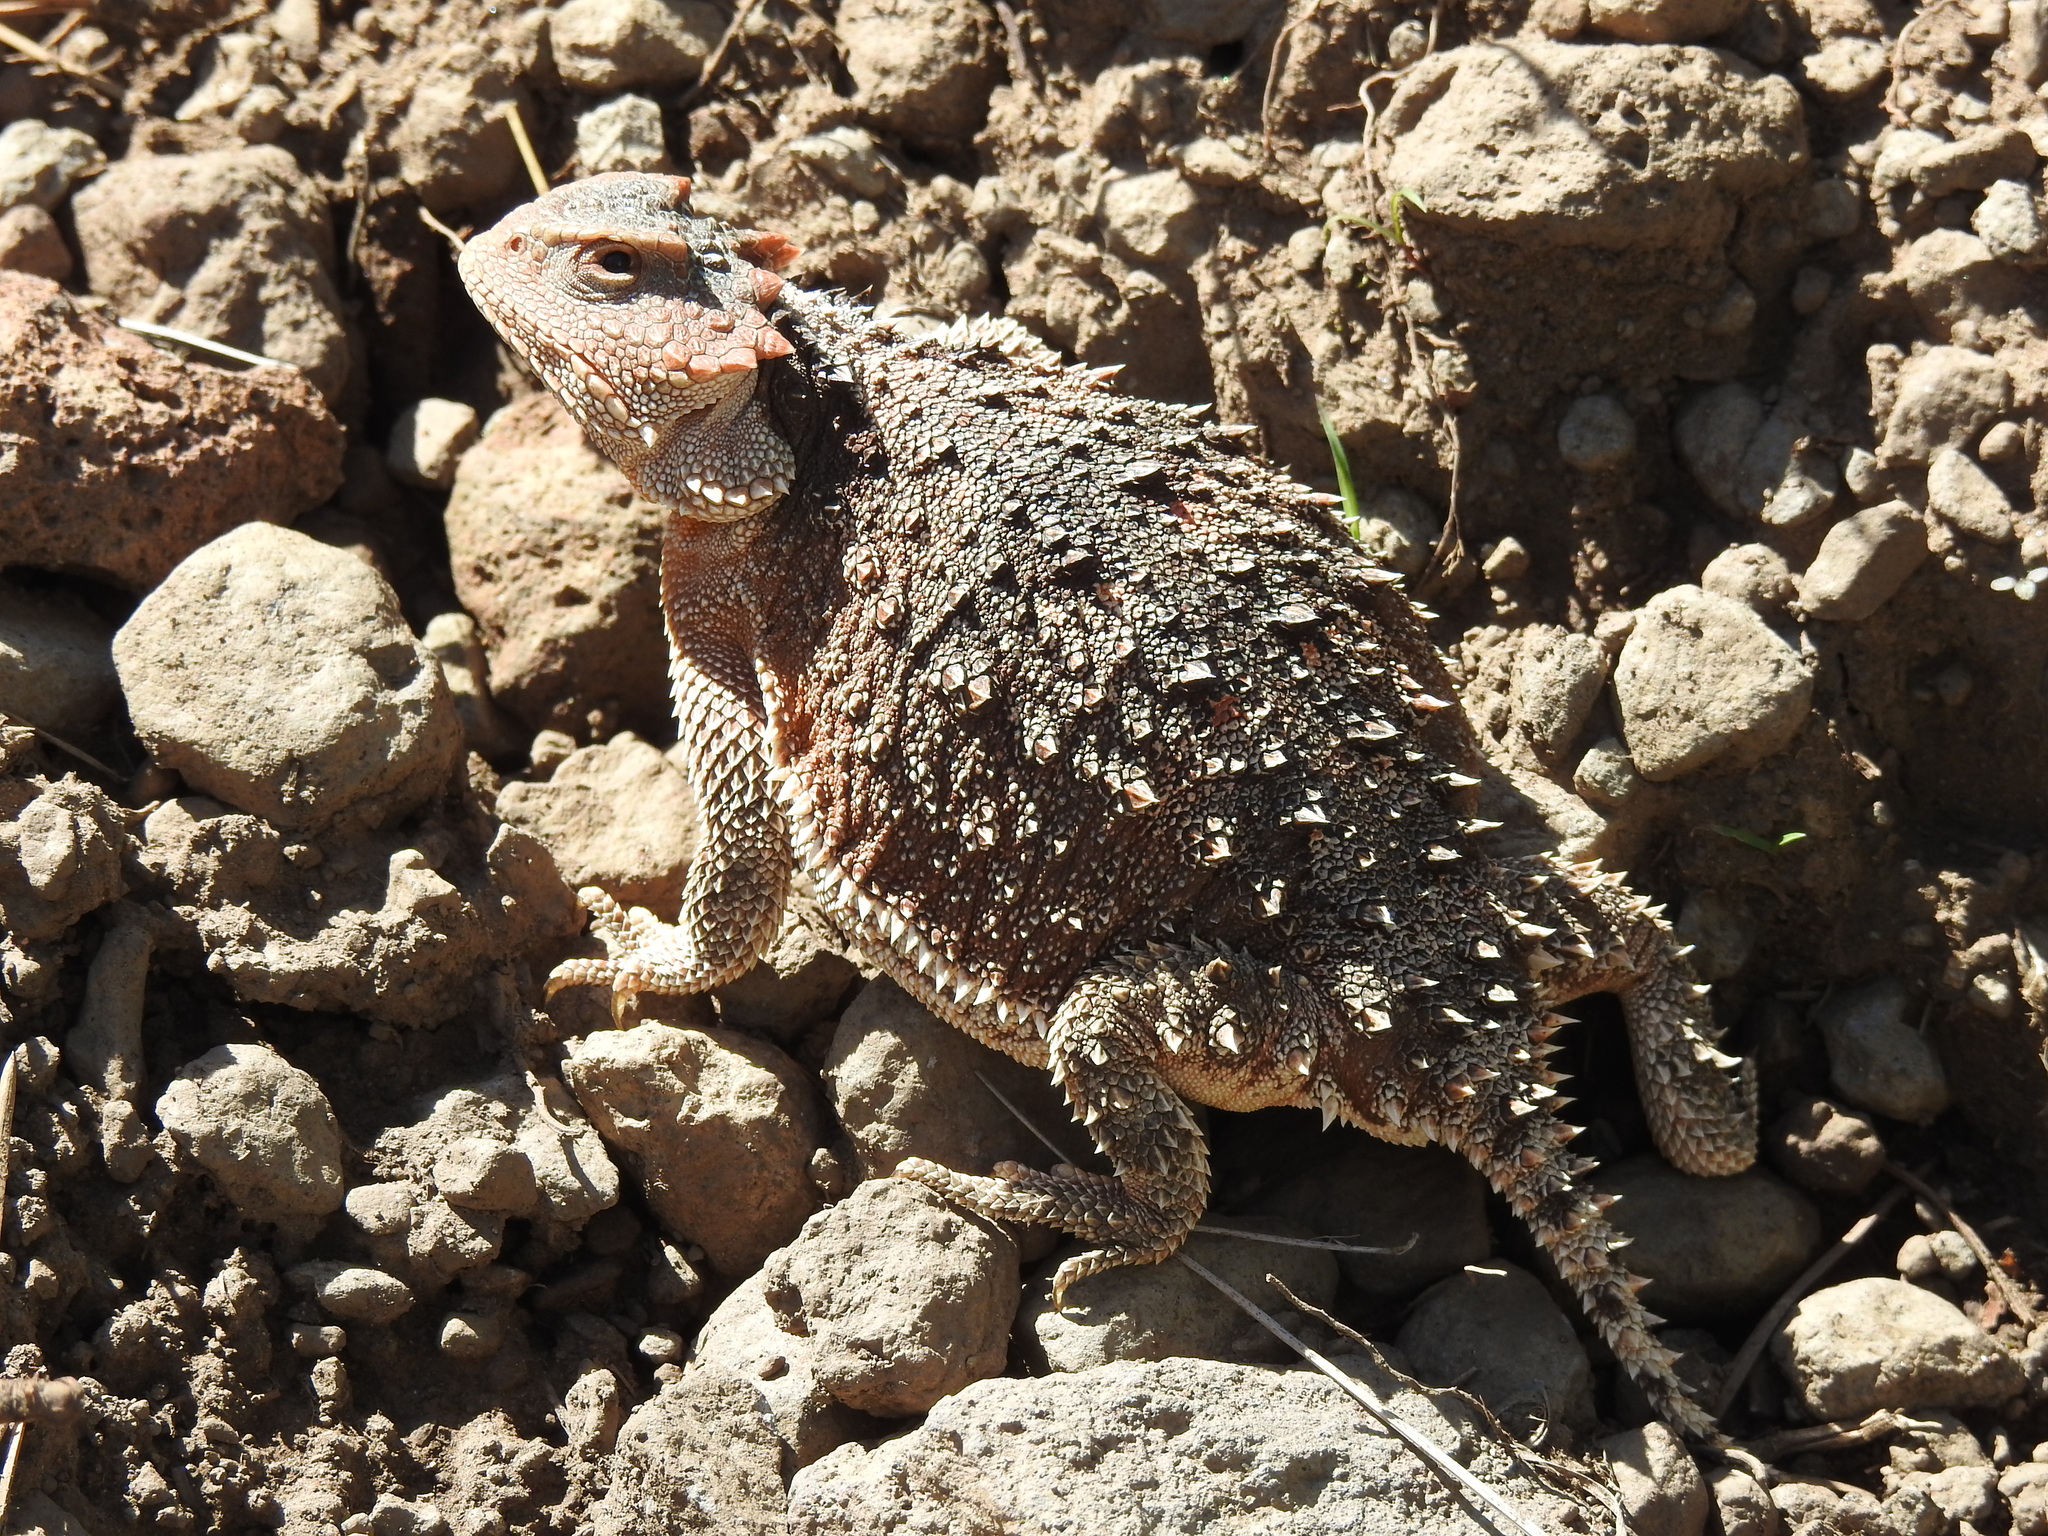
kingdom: Animalia
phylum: Chordata
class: Squamata
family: Phrynosomatidae
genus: Phrynosoma
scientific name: Phrynosoma hernandesi
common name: Greater short-horned lizard
